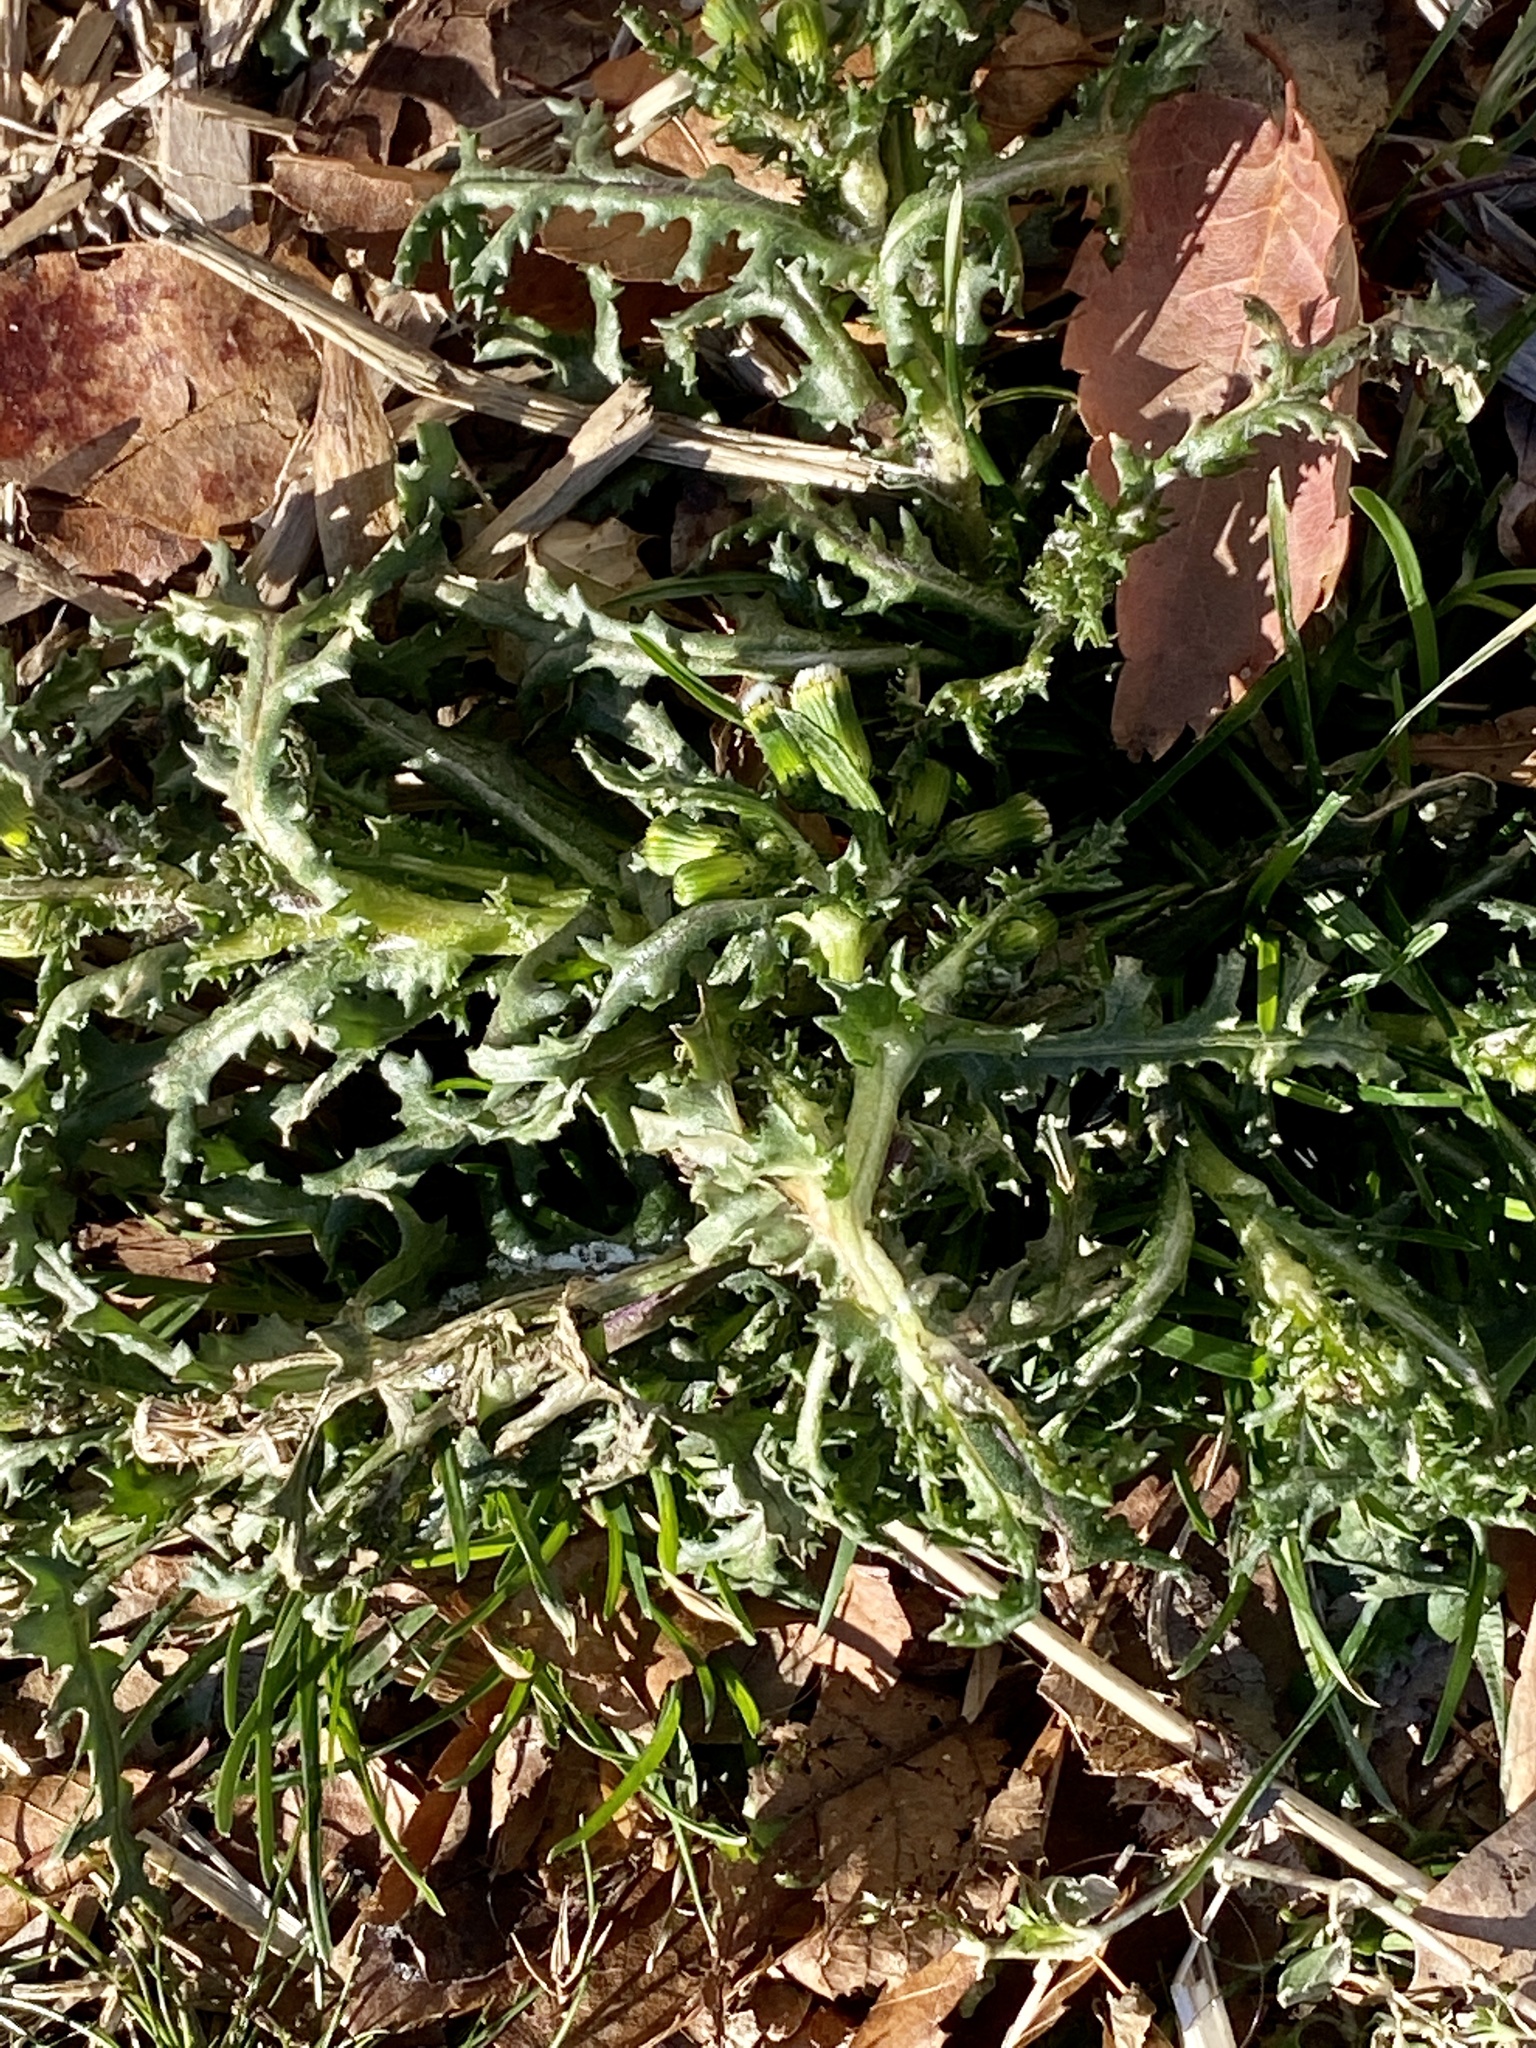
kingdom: Plantae
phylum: Tracheophyta
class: Magnoliopsida
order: Asterales
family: Asteraceae
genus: Senecio
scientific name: Senecio vulgaris
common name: Old-man-in-the-spring
